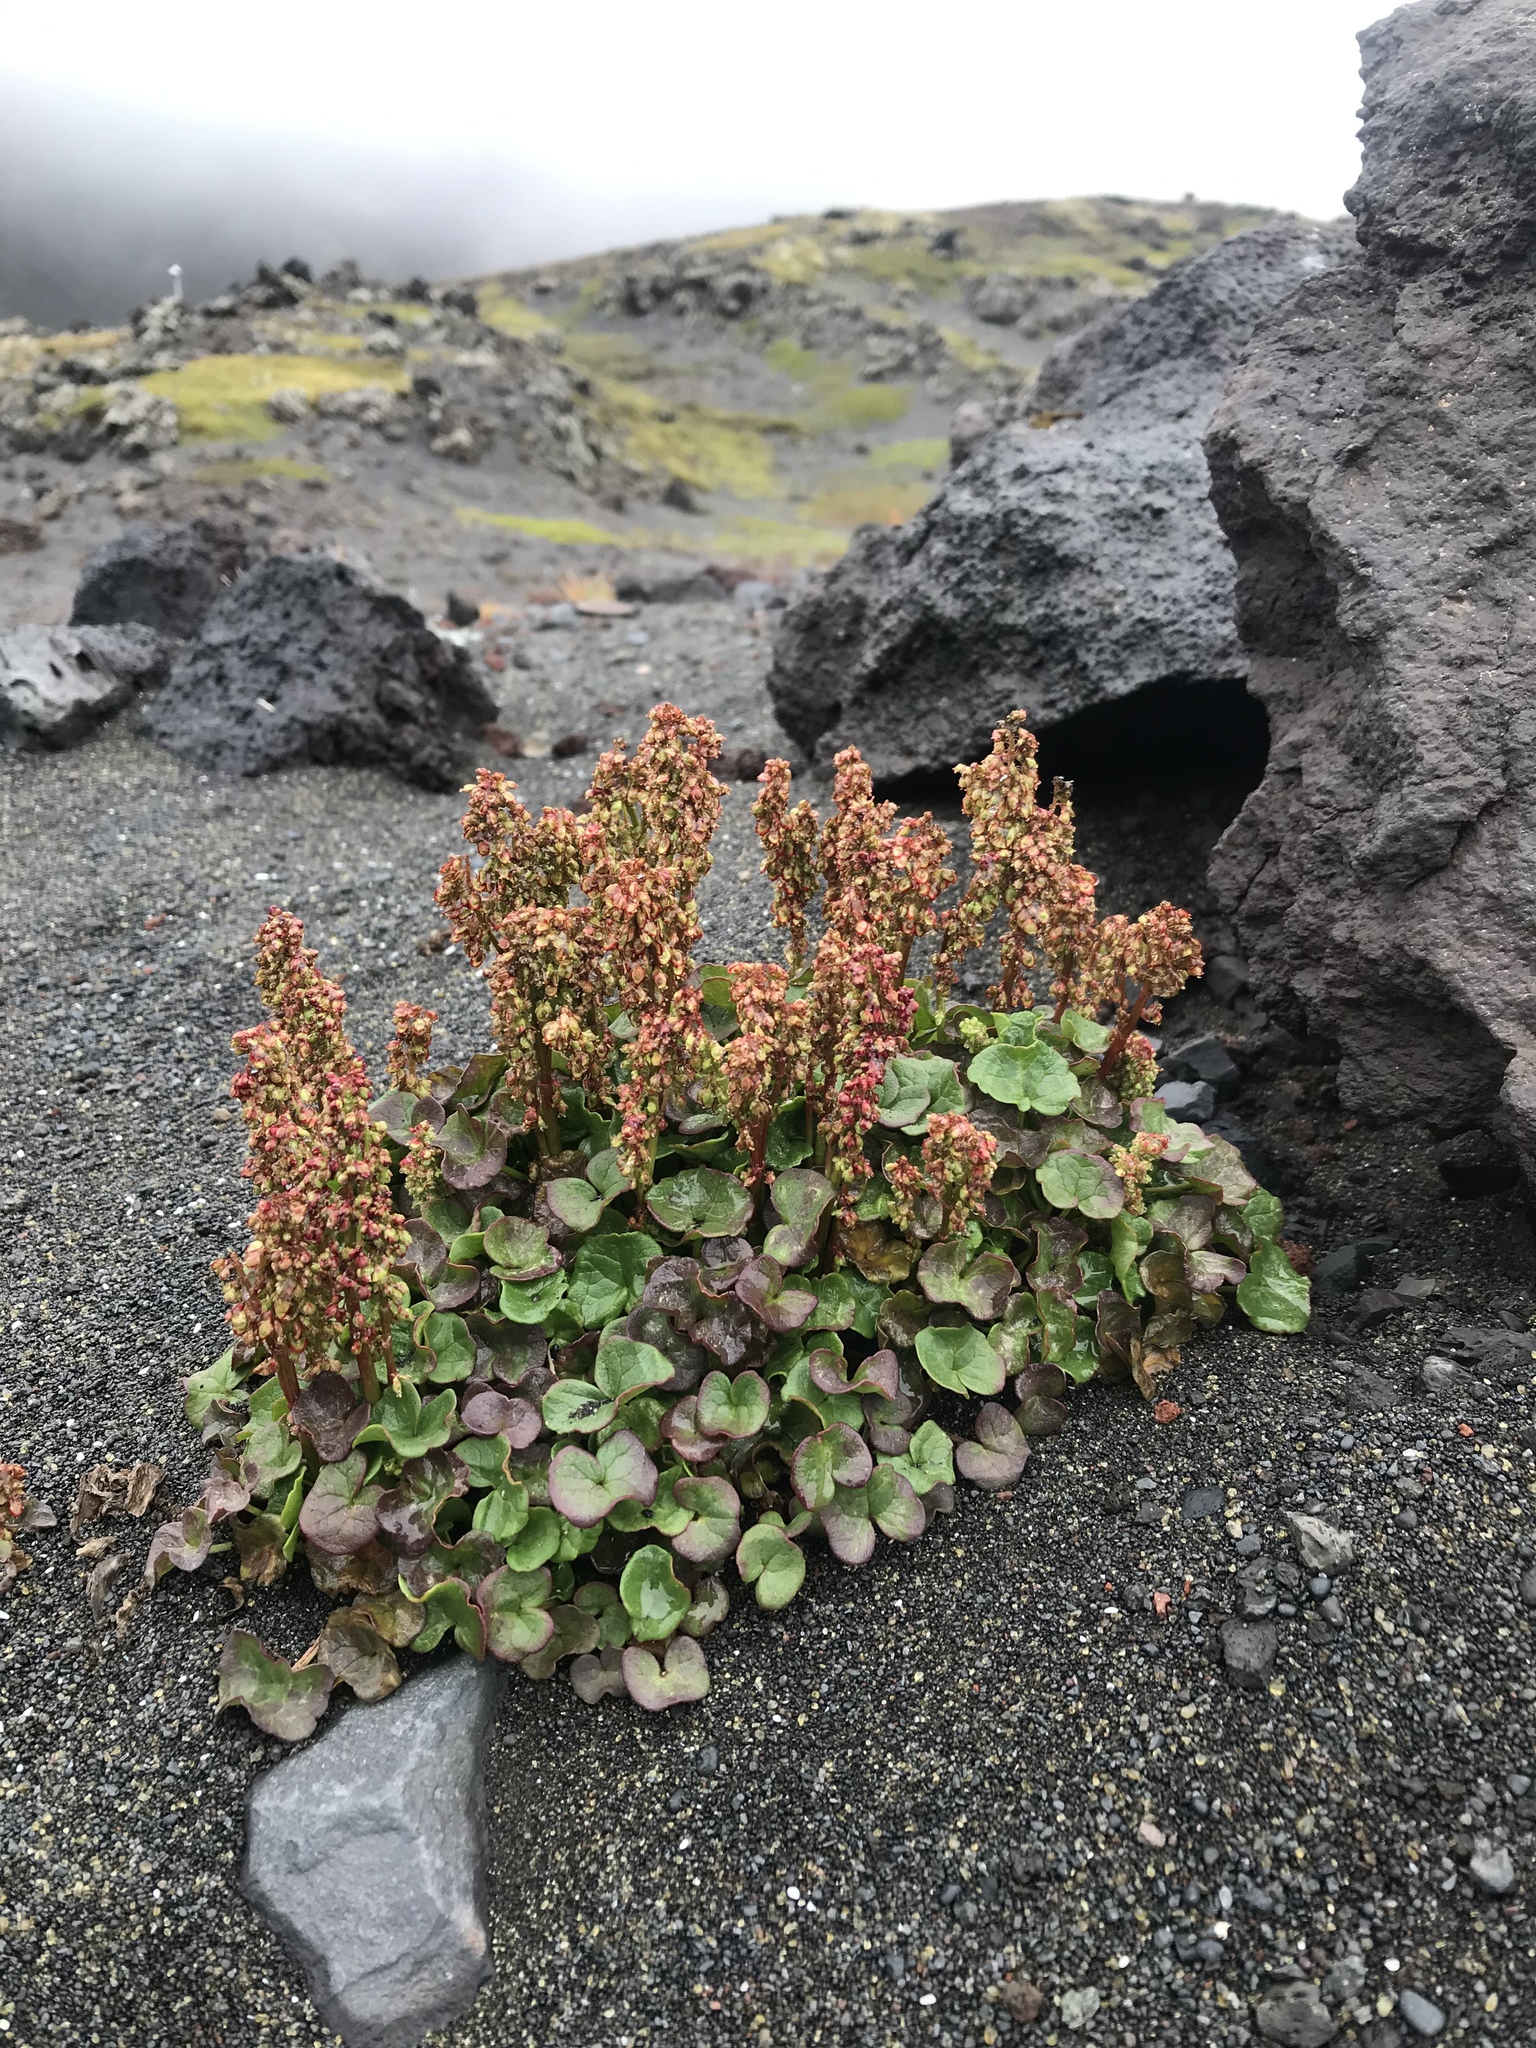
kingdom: Plantae
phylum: Tracheophyta
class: Magnoliopsida
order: Caryophyllales
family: Polygonaceae
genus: Oxyria
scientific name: Oxyria digyna
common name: Alpine mountain-sorrel
